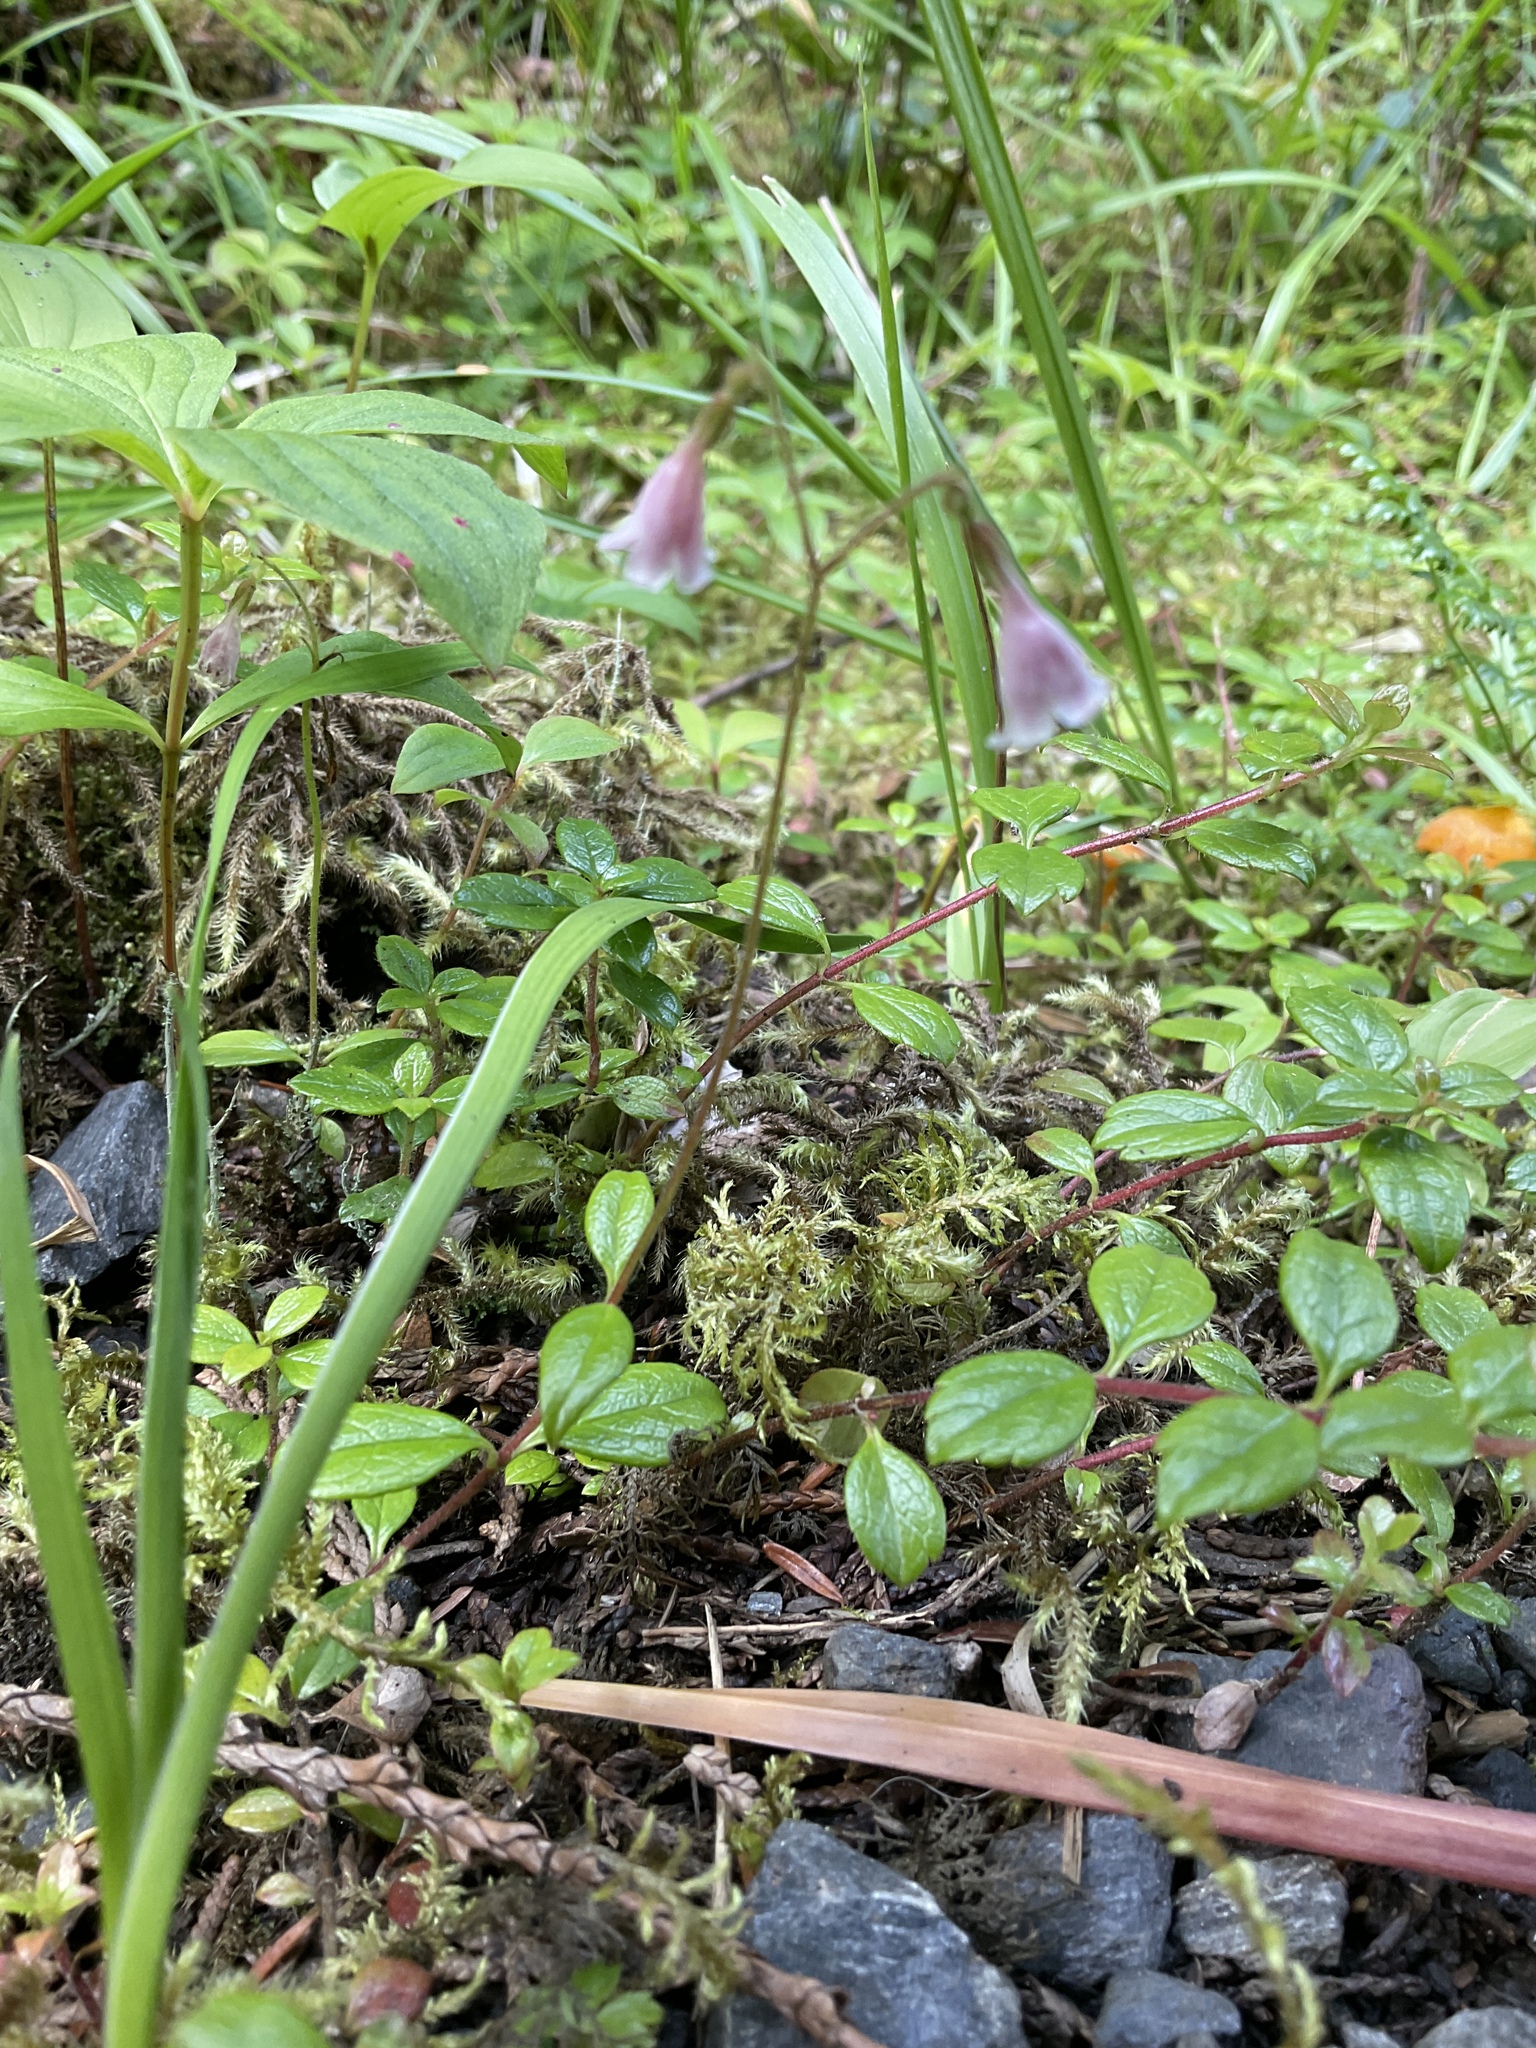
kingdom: Plantae
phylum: Tracheophyta
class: Magnoliopsida
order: Dipsacales
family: Caprifoliaceae
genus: Linnaea
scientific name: Linnaea borealis
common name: Twinflower
